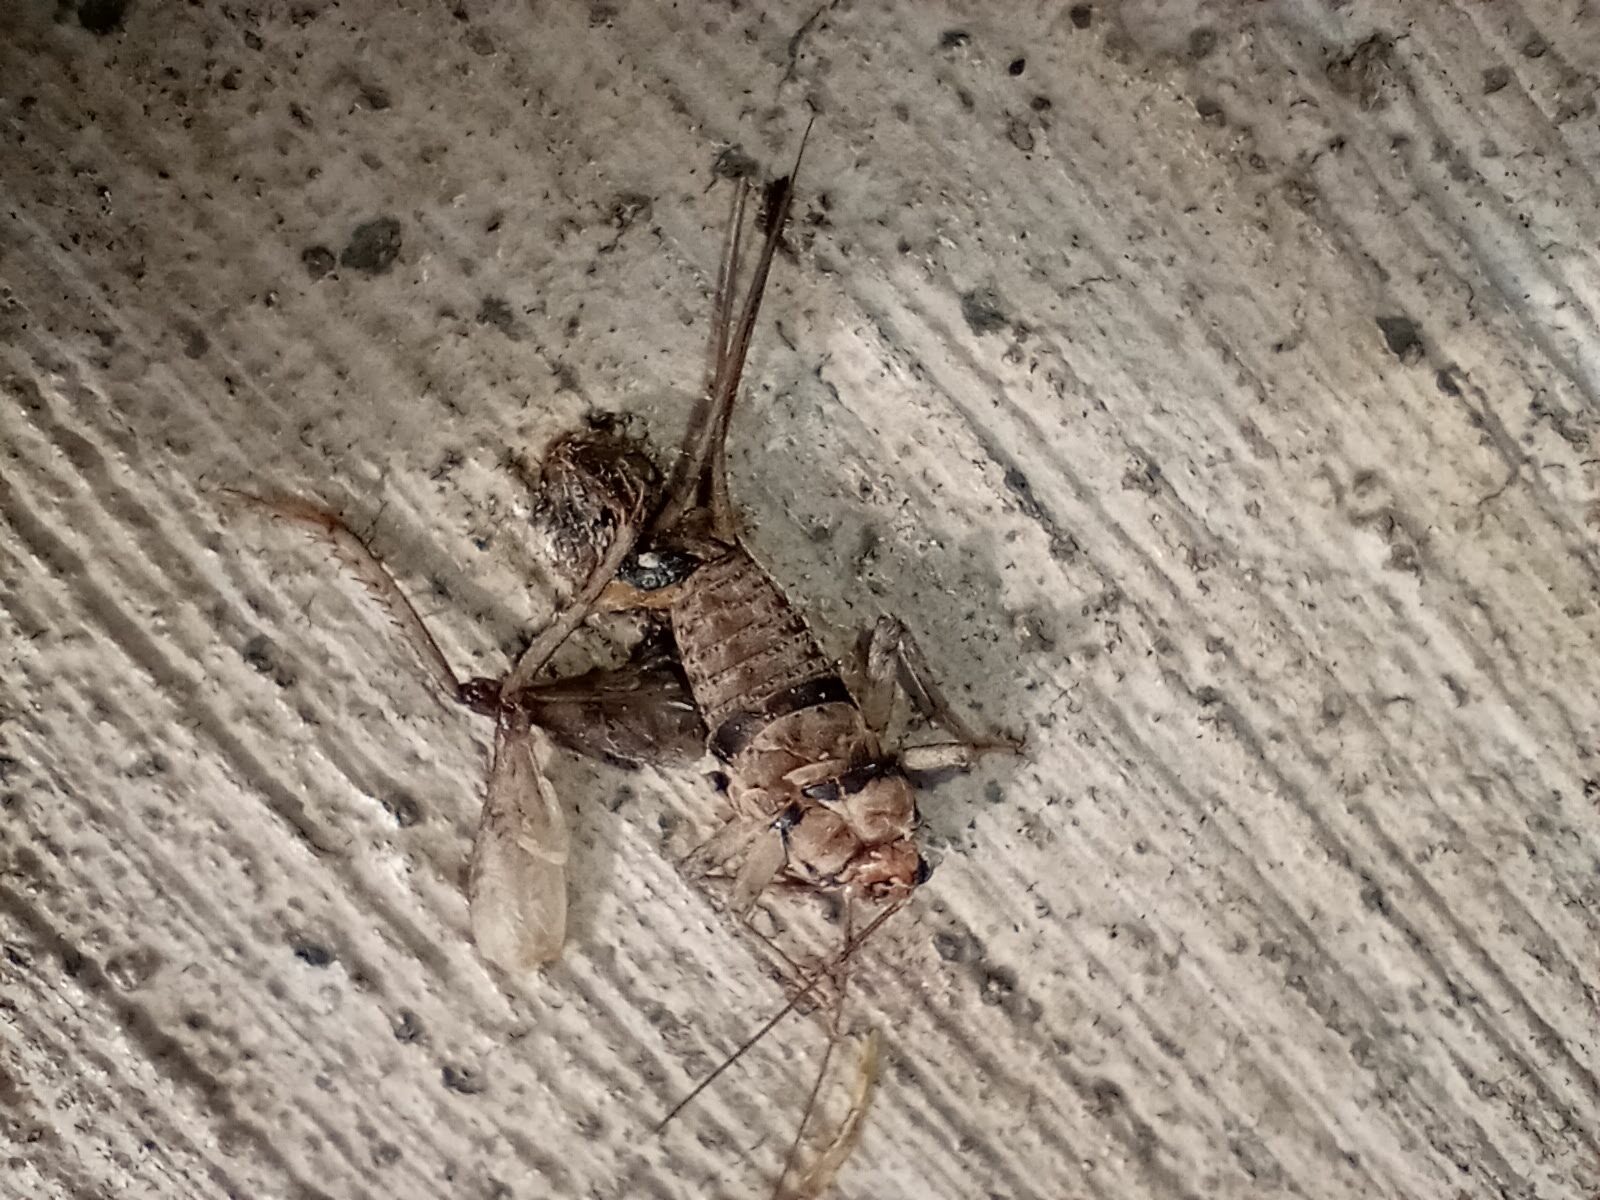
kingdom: Animalia
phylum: Arthropoda
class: Insecta
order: Orthoptera
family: Gryllidae
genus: Gryllodes
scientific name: Gryllodes sigillatus
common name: Tropical house cricket
